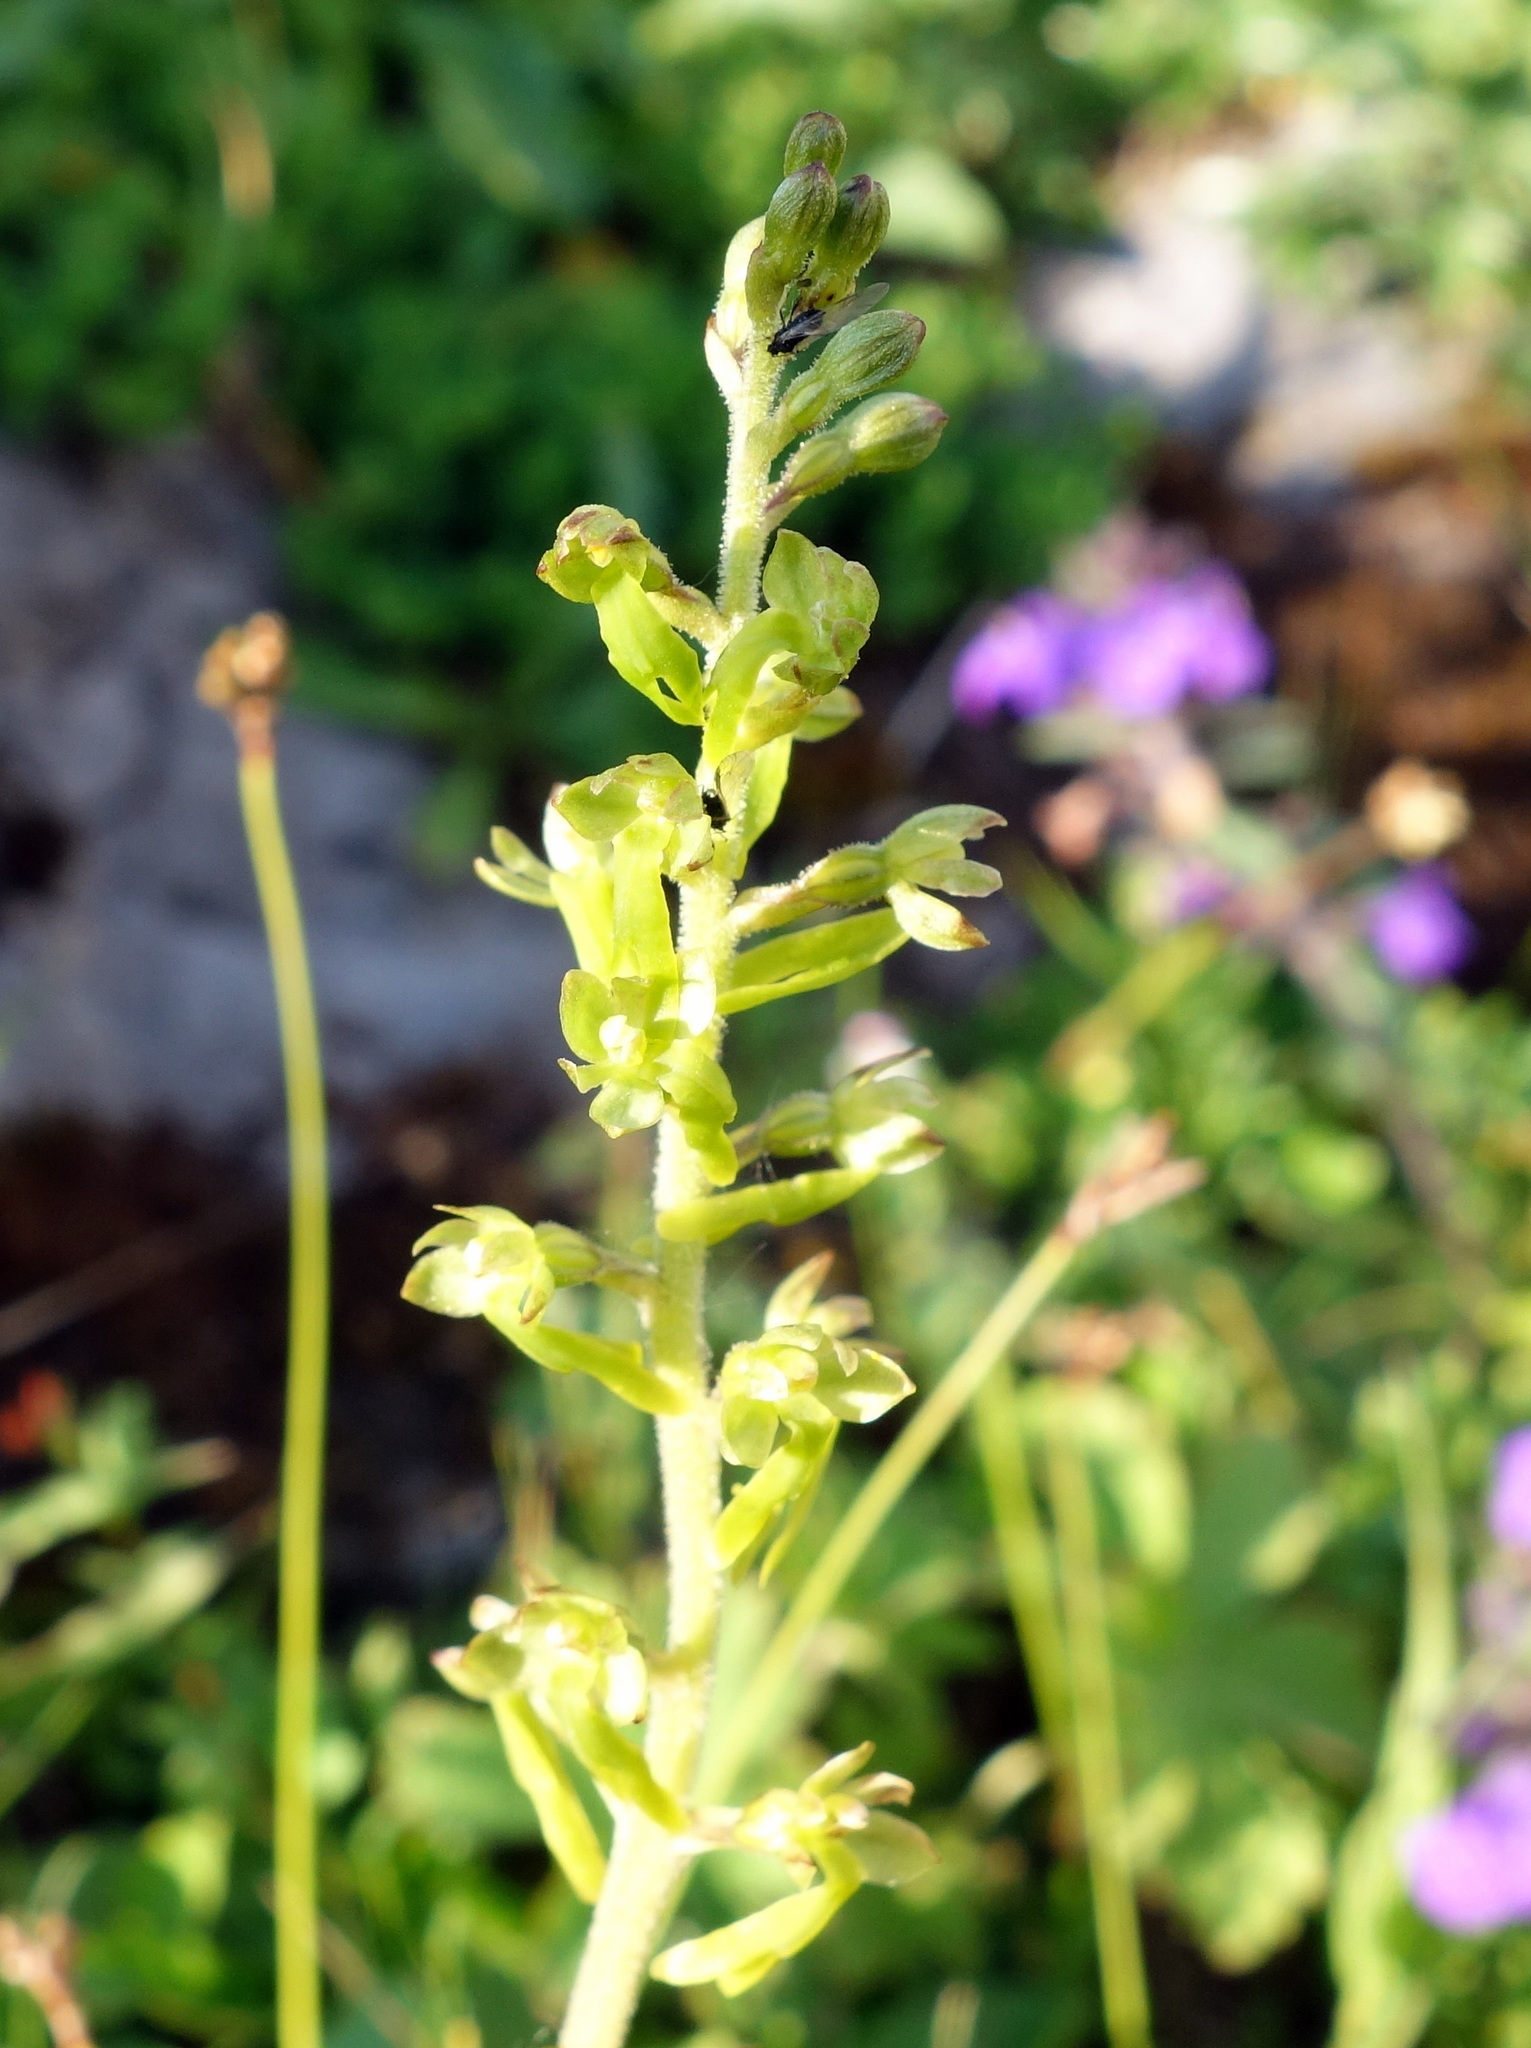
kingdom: Plantae
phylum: Tracheophyta
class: Liliopsida
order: Asparagales
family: Orchidaceae
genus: Neottia
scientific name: Neottia ovata
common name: Common twayblade
